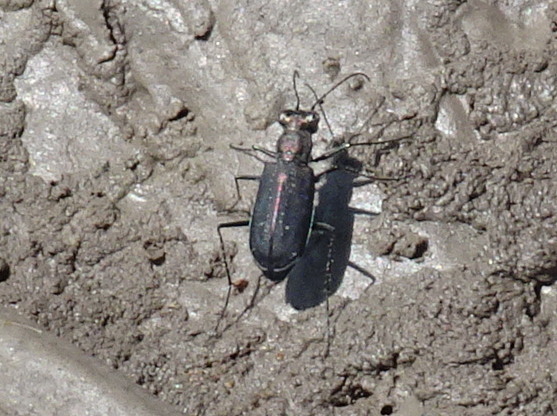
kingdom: Animalia
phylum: Arthropoda
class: Insecta
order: Coleoptera
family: Carabidae
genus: Cicindela
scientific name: Cicindela punctulata
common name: Punctured tiger beetle
